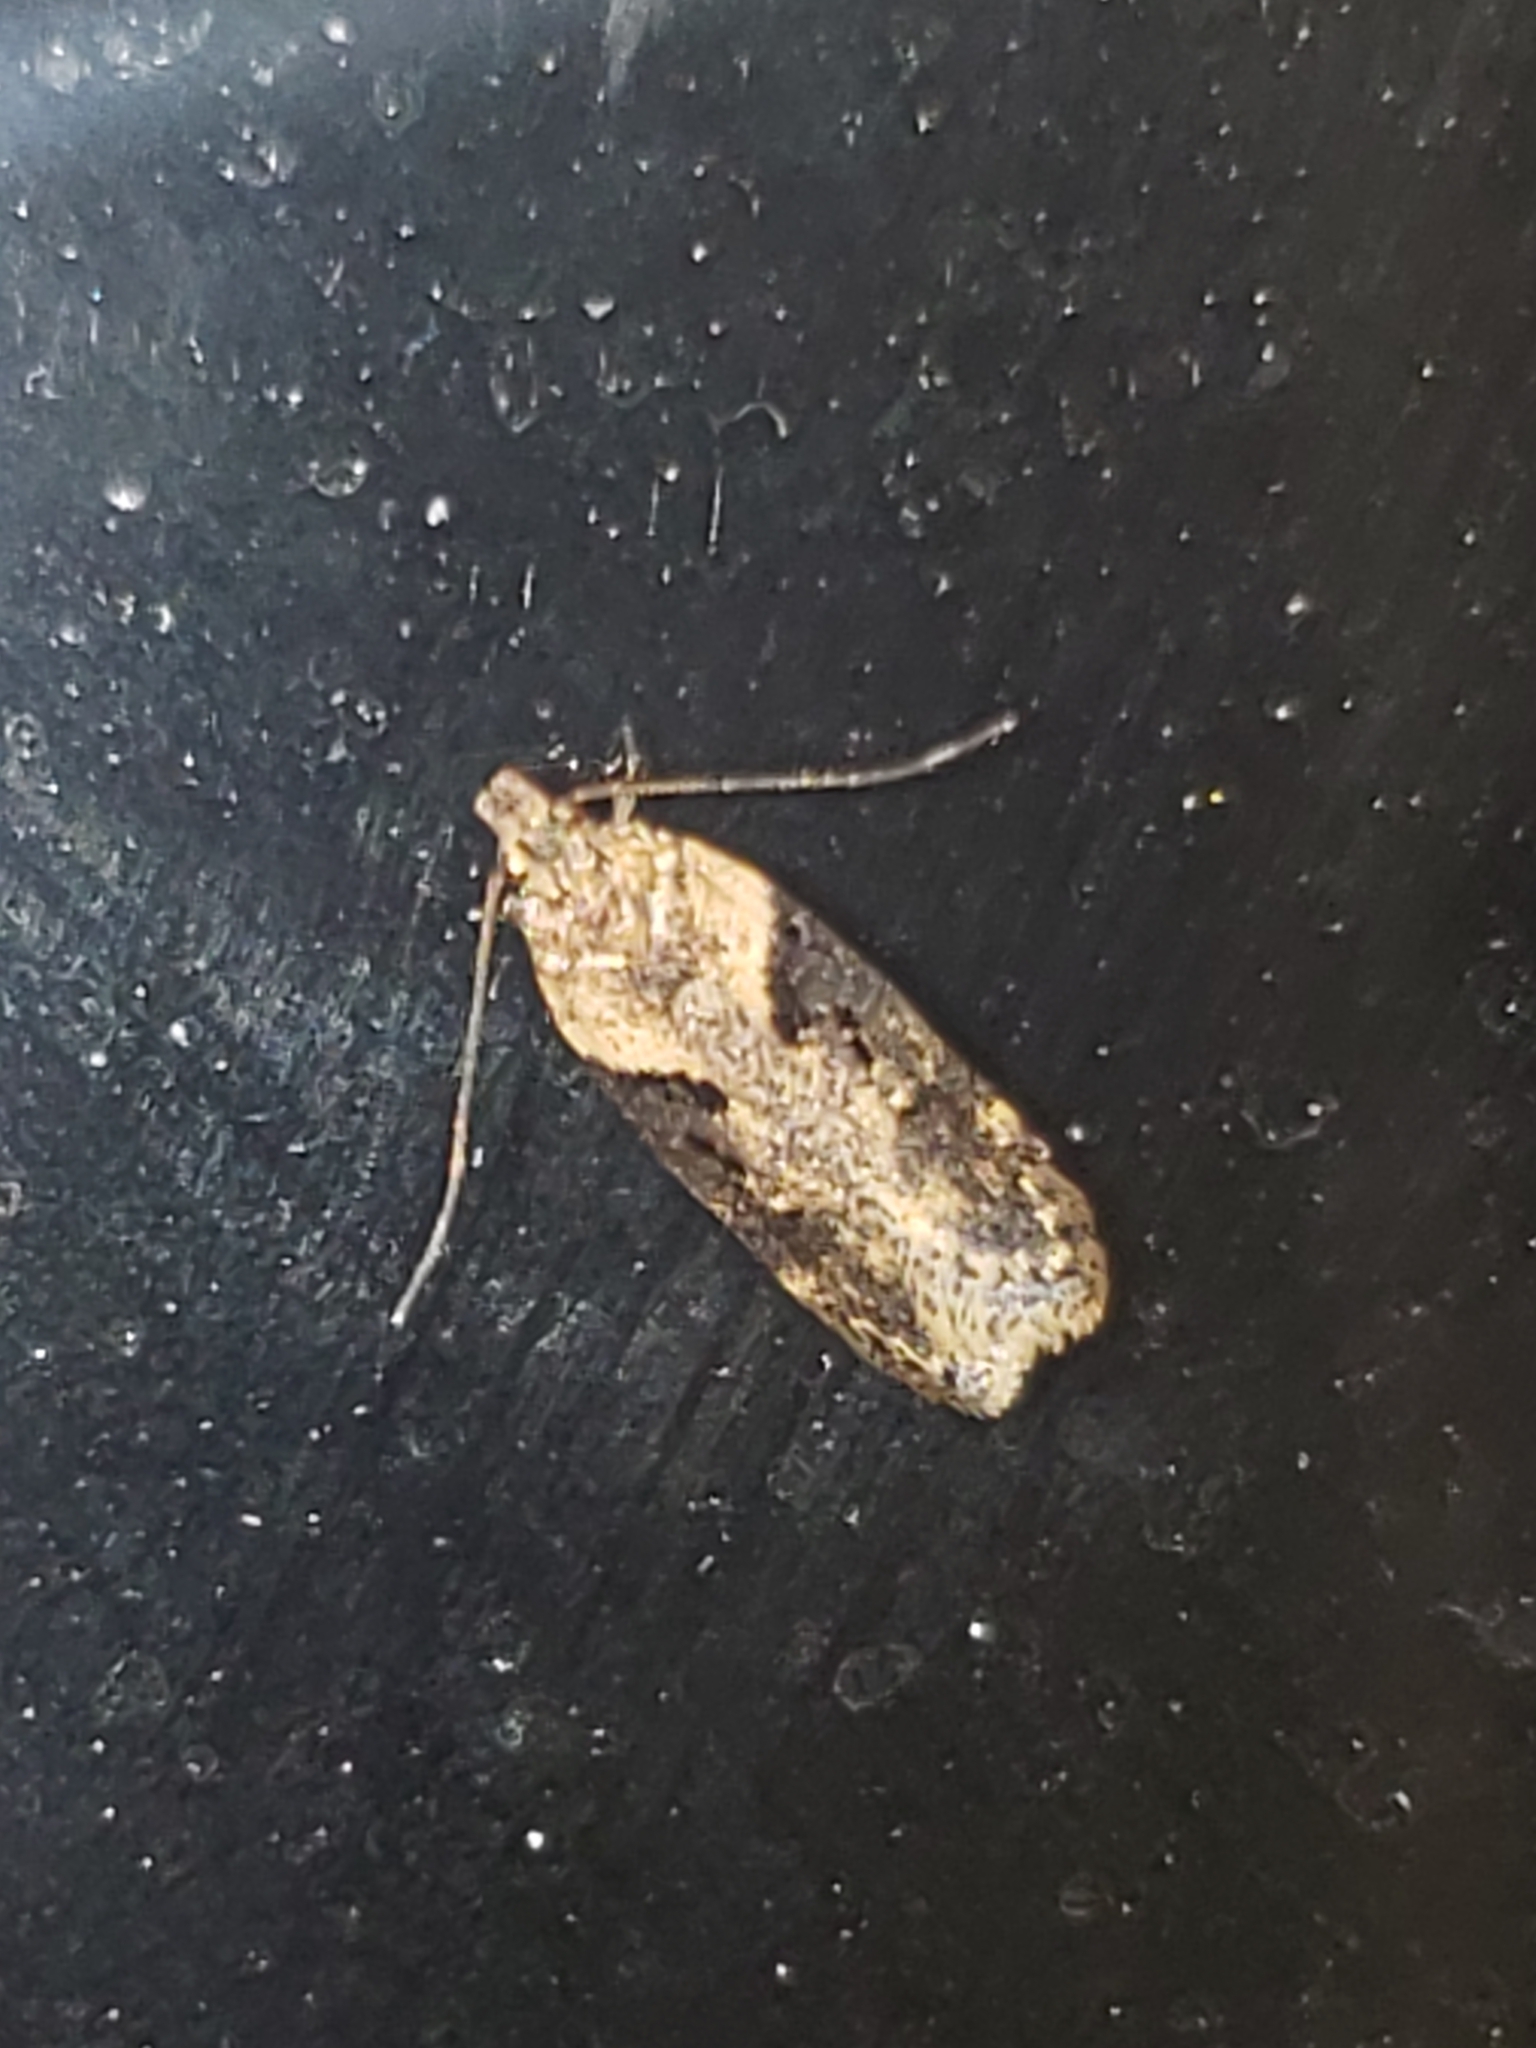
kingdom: Animalia
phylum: Arthropoda
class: Insecta
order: Lepidoptera
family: Gelechiidae
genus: Chionodes
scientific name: Chionodes mediofuscella
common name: Black-smudged chionodes moth
